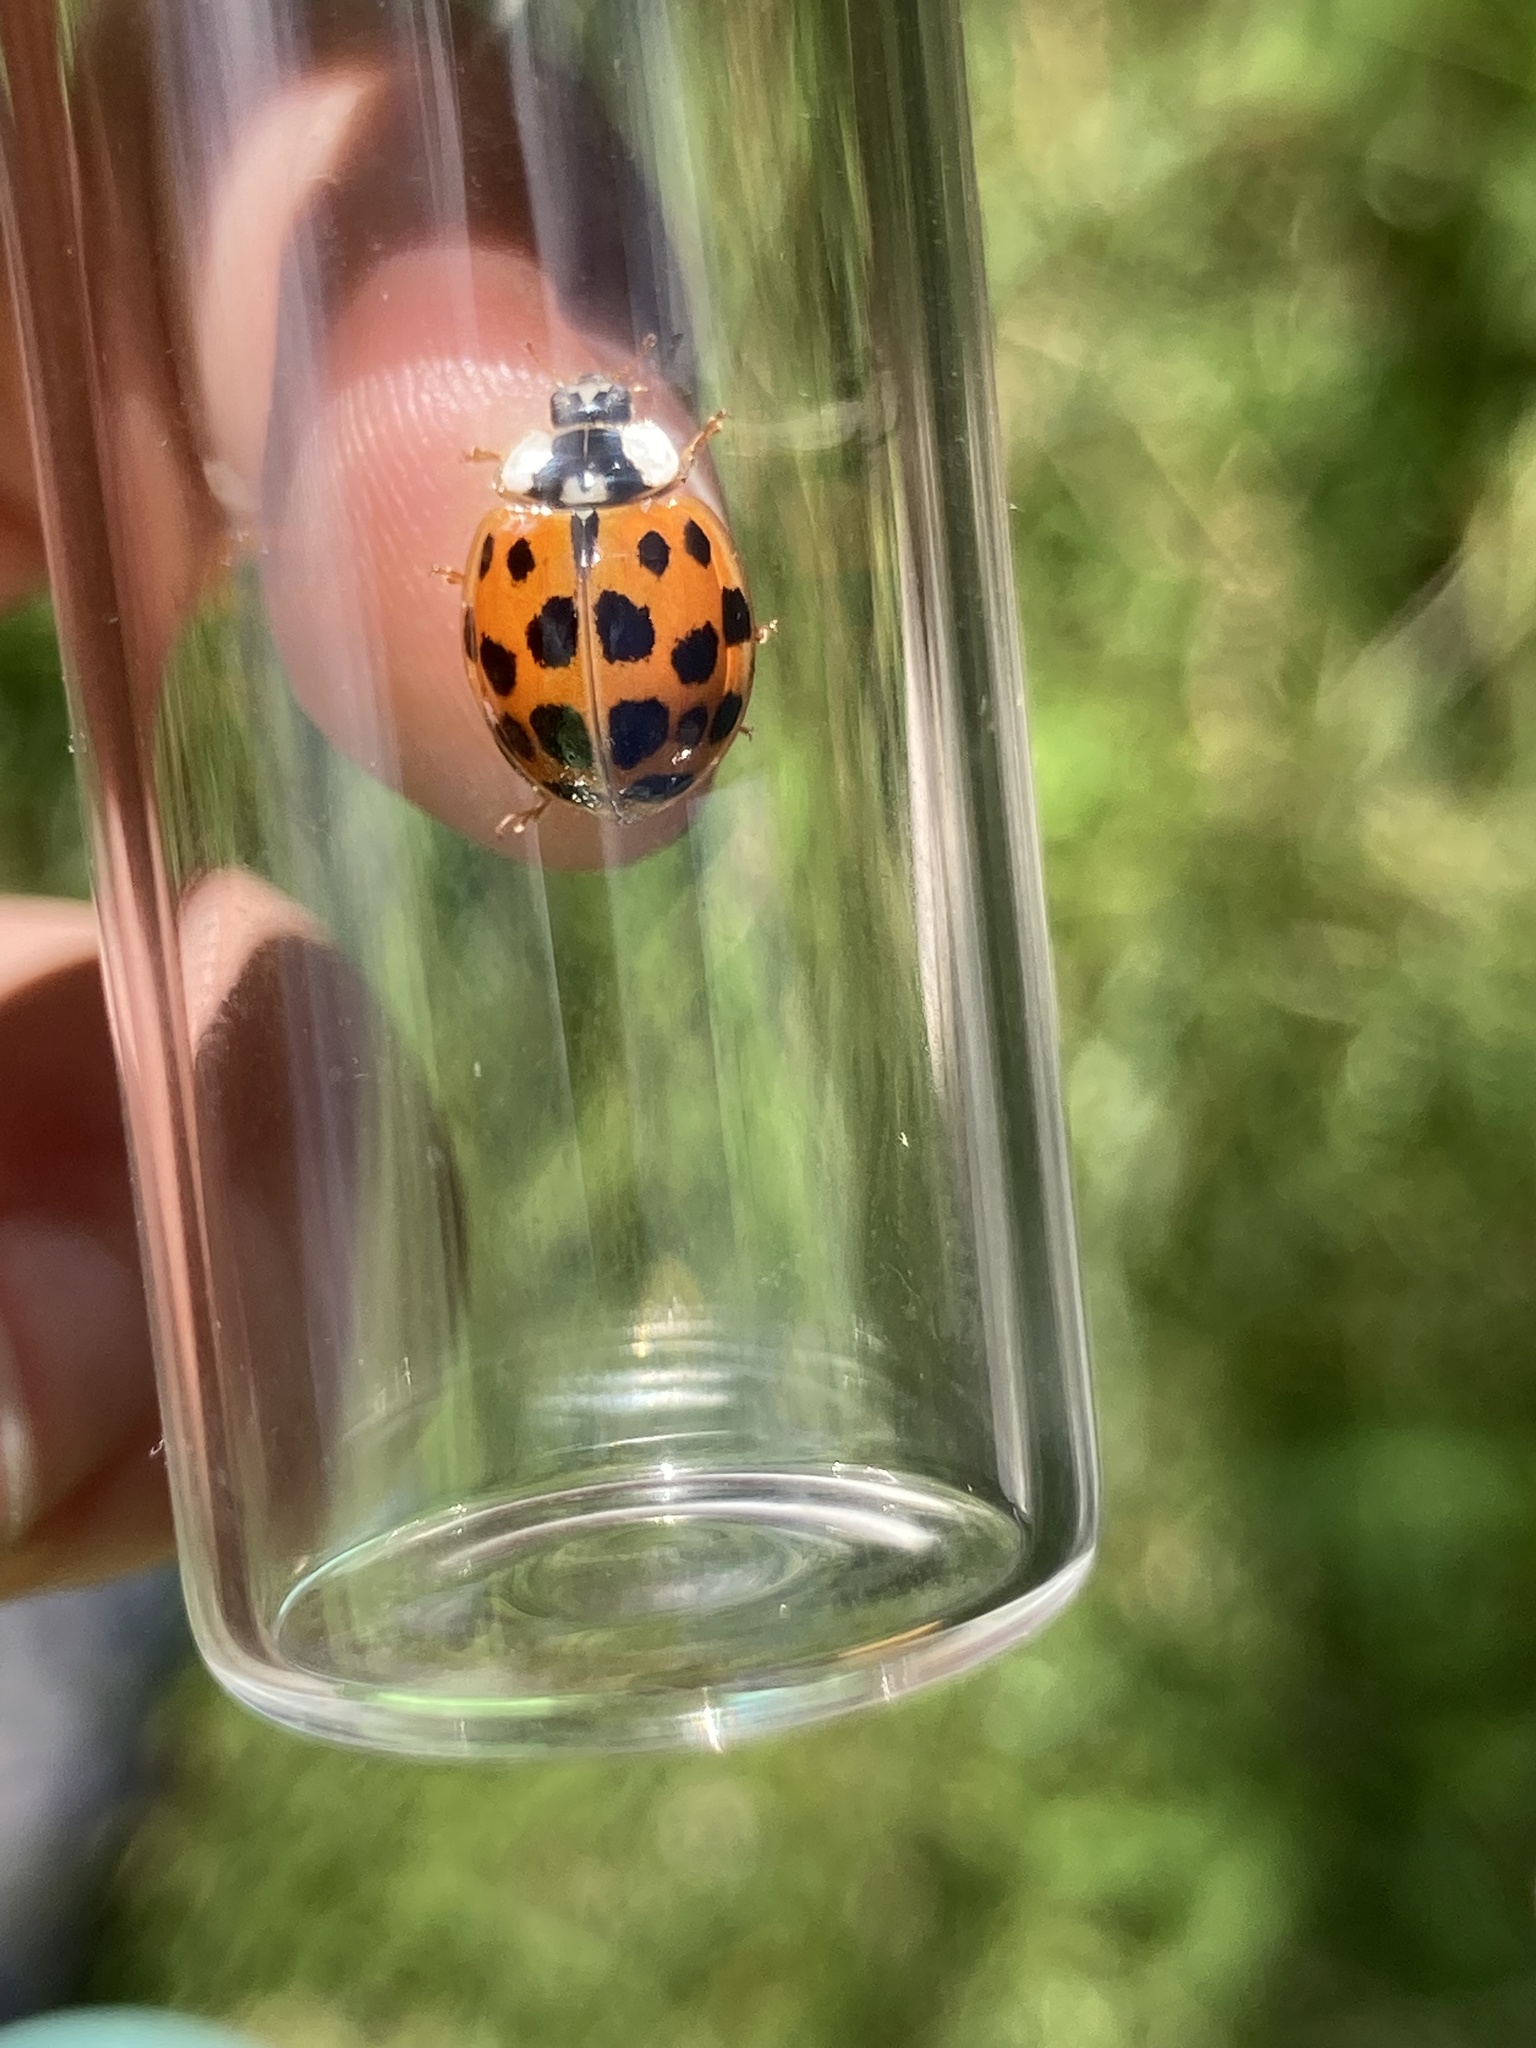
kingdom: Animalia
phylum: Arthropoda
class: Insecta
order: Coleoptera
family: Coccinellidae
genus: Harmonia
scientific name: Harmonia axyridis
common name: Harlequin ladybird
